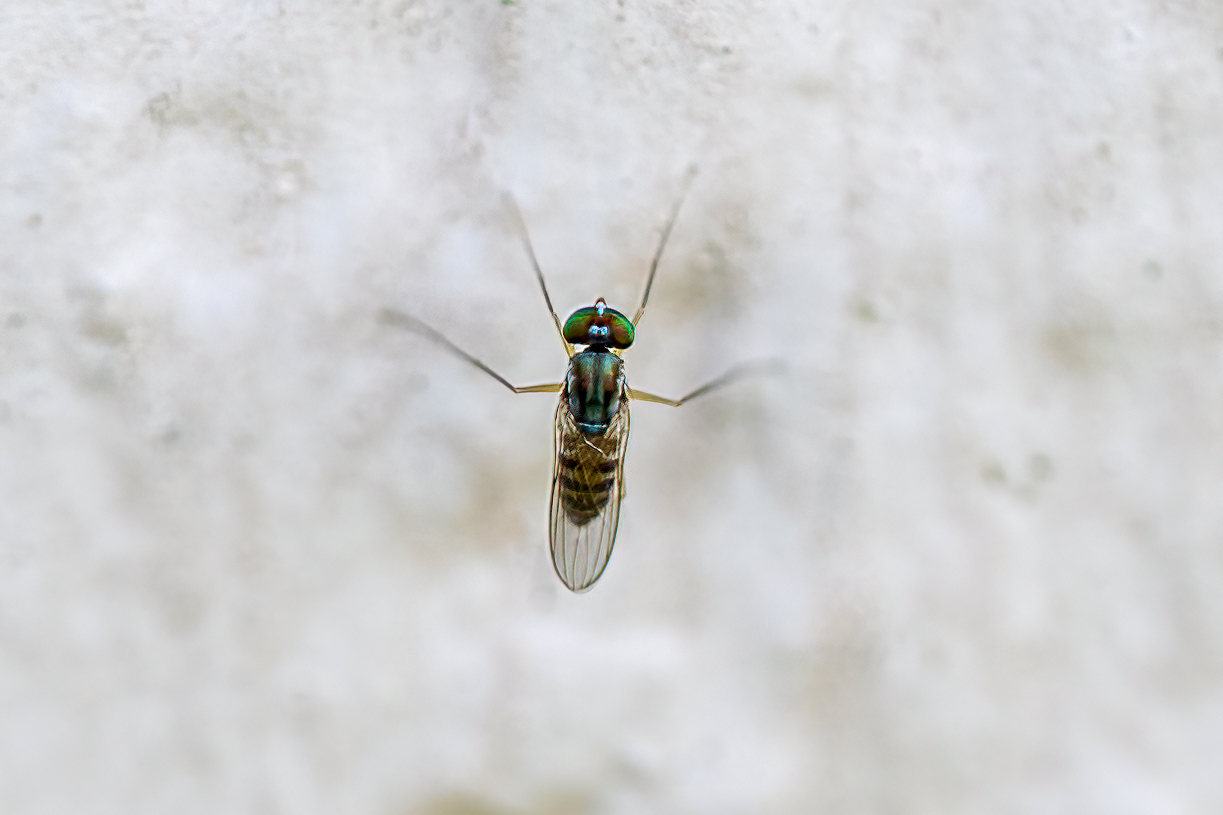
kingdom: Animalia
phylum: Arthropoda
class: Insecta
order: Diptera
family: Dolichopodidae
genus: Dactylomyia
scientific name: Dactylomyia lateralis
